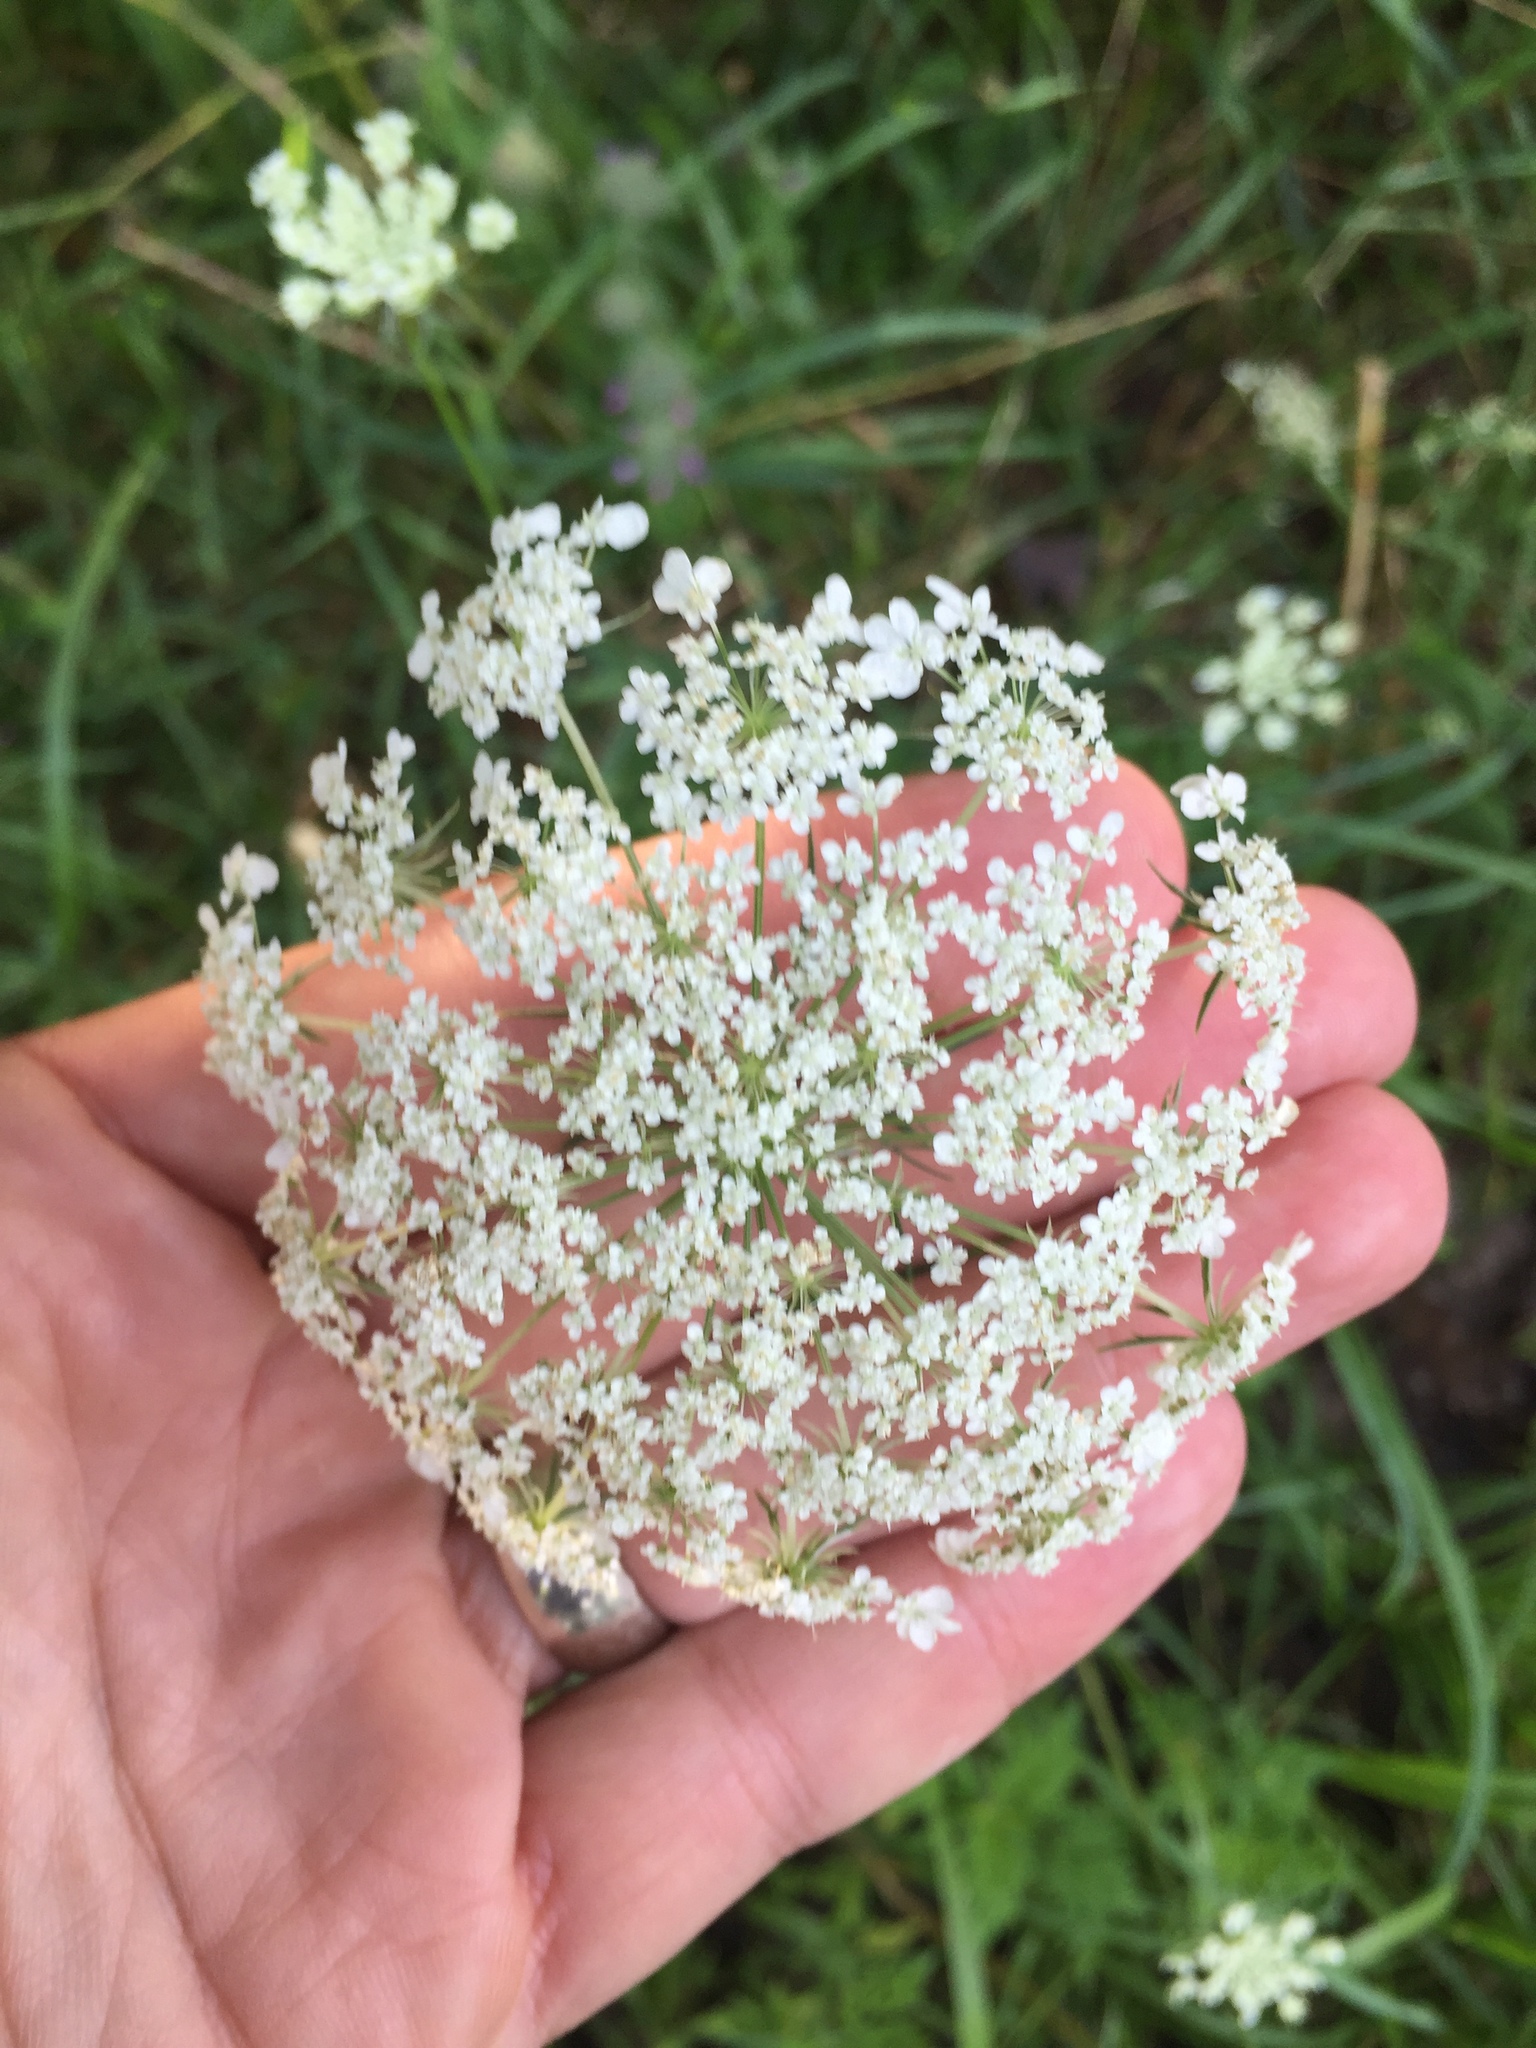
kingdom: Plantae
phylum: Tracheophyta
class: Magnoliopsida
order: Apiales
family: Apiaceae
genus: Daucus
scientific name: Daucus carota
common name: Wild carrot
